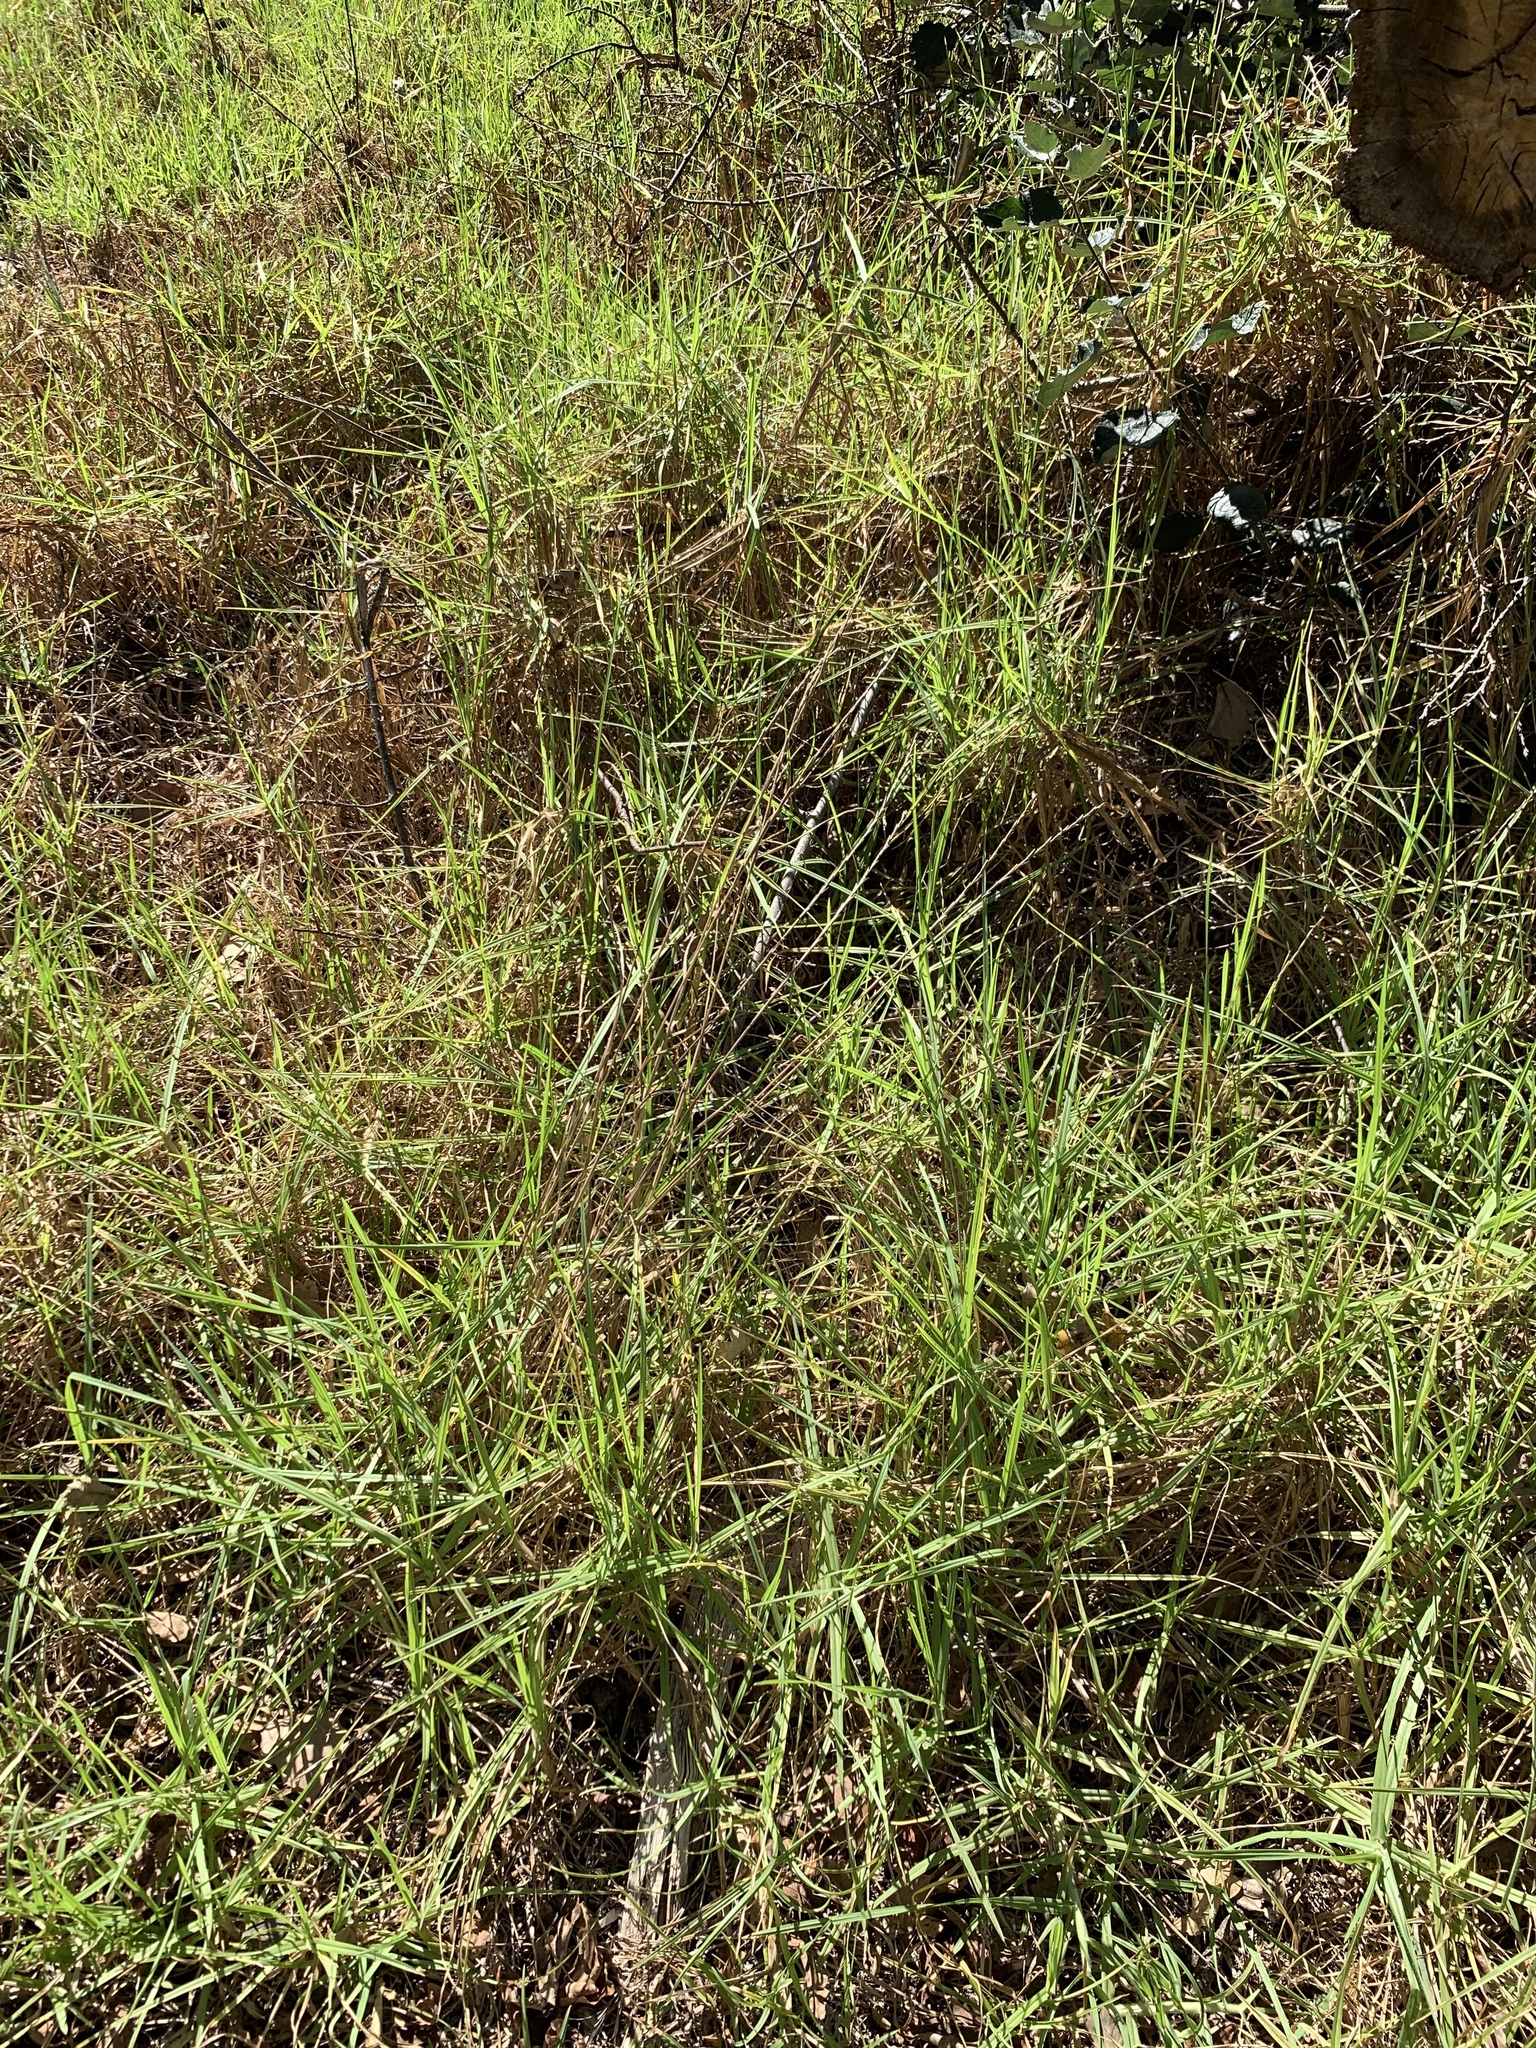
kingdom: Plantae
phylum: Tracheophyta
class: Liliopsida
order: Poales
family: Poaceae
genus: Cenchrus
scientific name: Cenchrus clandestinus
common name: Kikuyugrass
